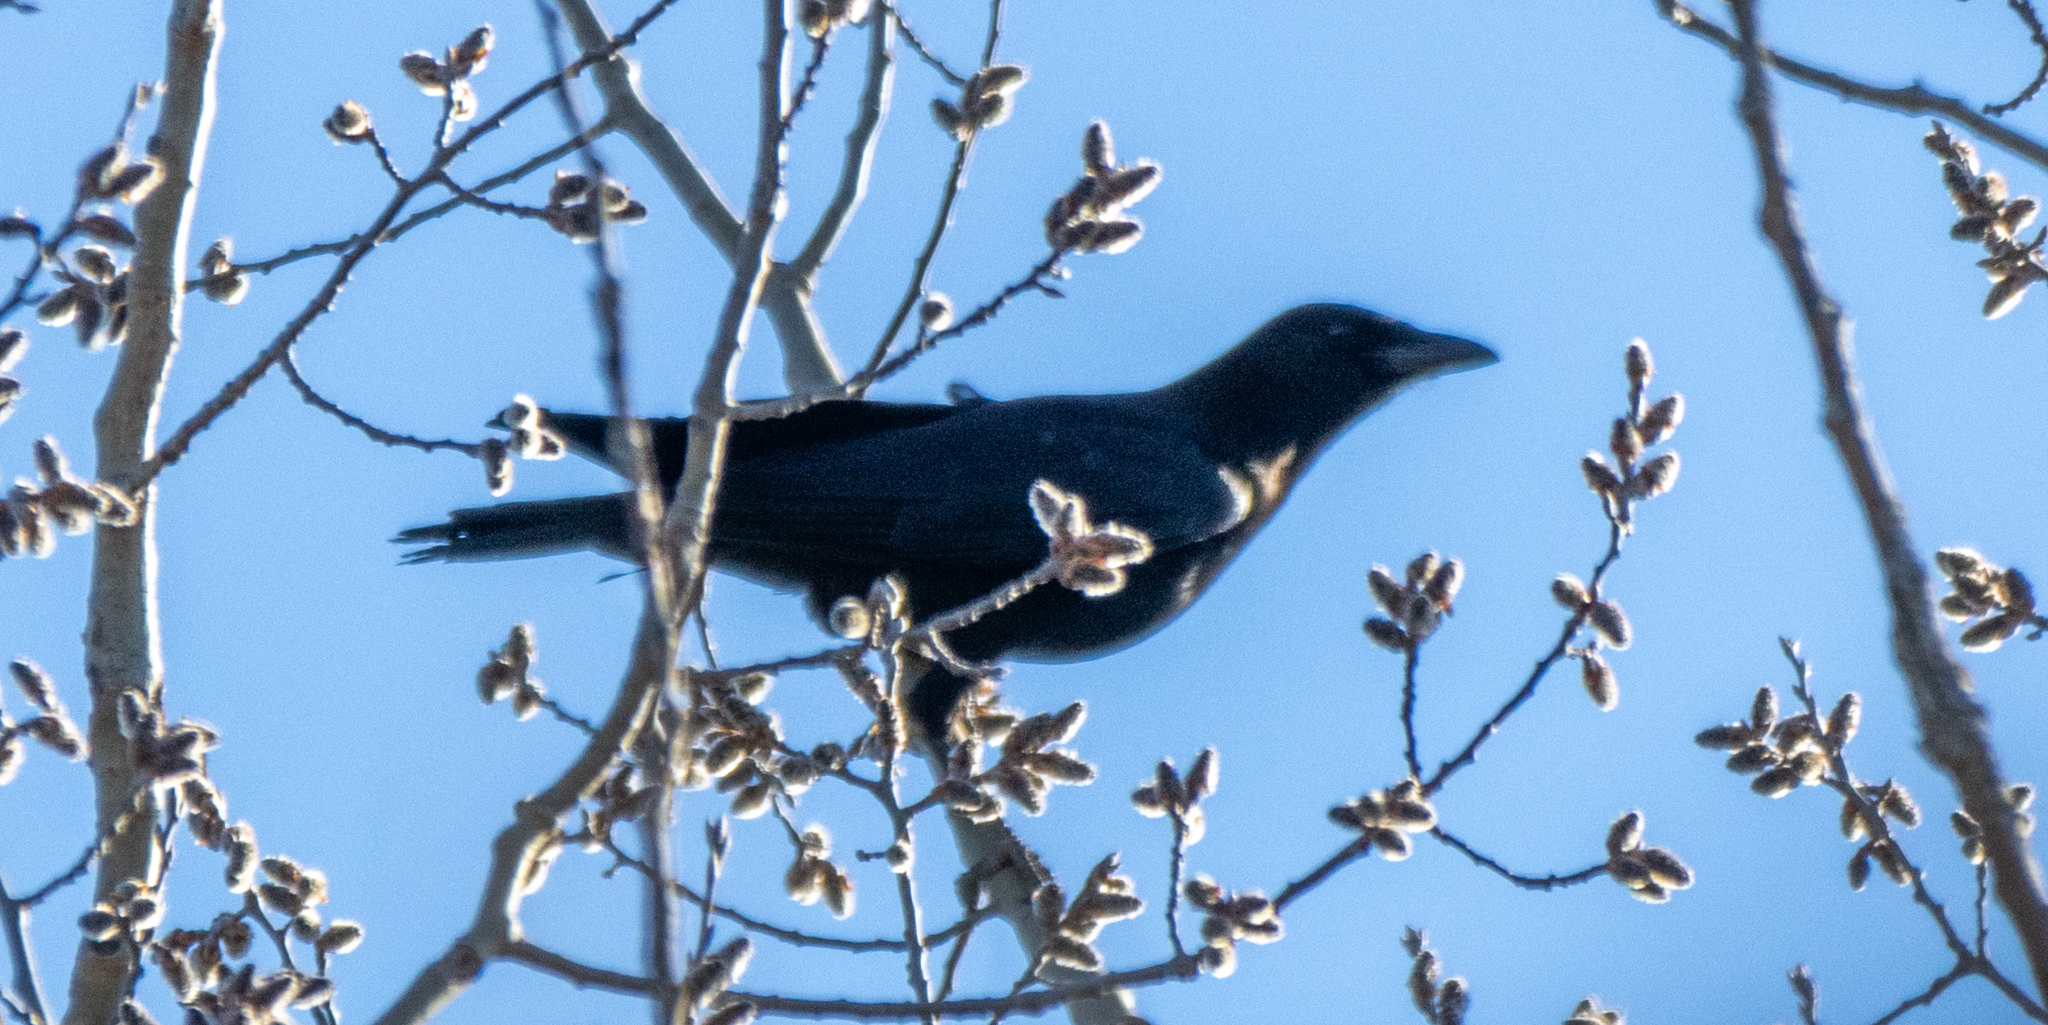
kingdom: Animalia
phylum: Chordata
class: Aves
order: Passeriformes
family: Corvidae
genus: Corvus
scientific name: Corvus brachyrhynchos
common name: American crow
